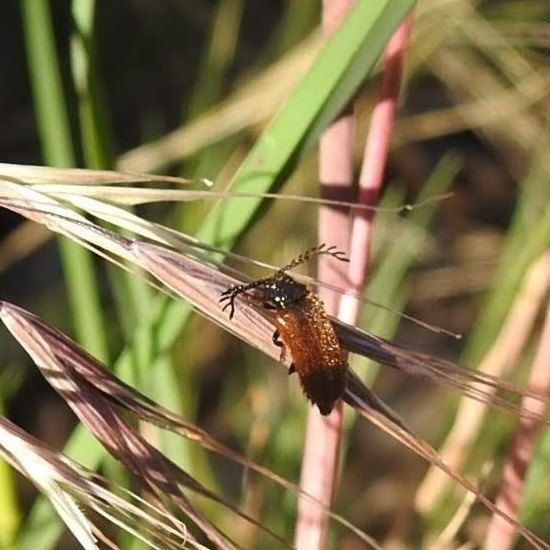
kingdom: Animalia
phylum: Arthropoda
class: Insecta
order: Coleoptera
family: Drilidae
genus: Drilus
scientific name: Drilus flavescens
